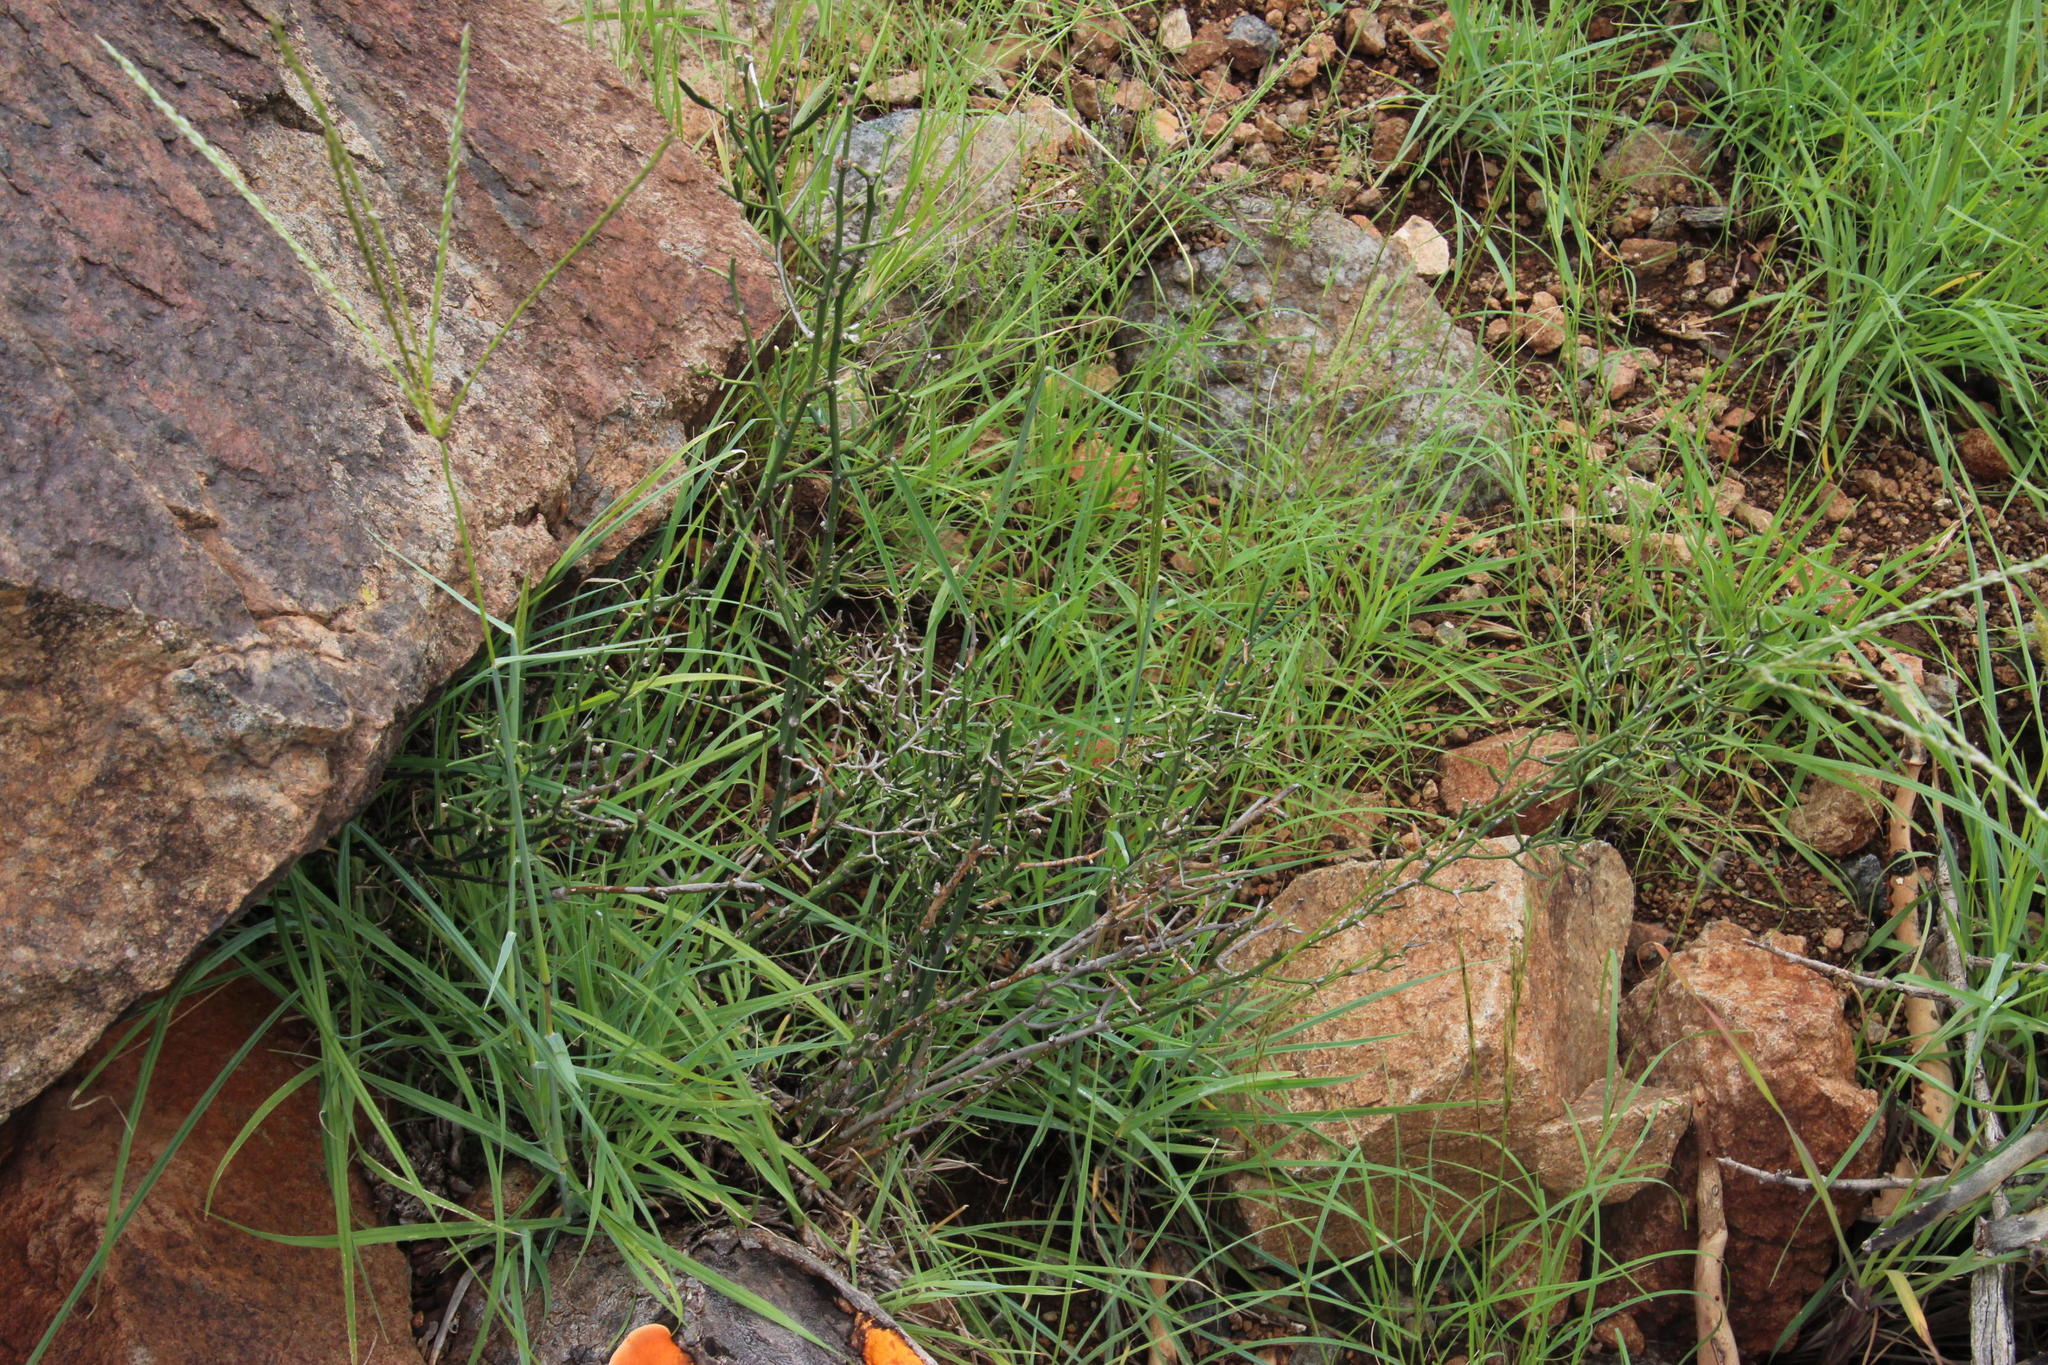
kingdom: Plantae
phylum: Tracheophyta
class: Liliopsida
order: Asparagales
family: Asparagaceae
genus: Asparagus
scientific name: Asparagus striatus
